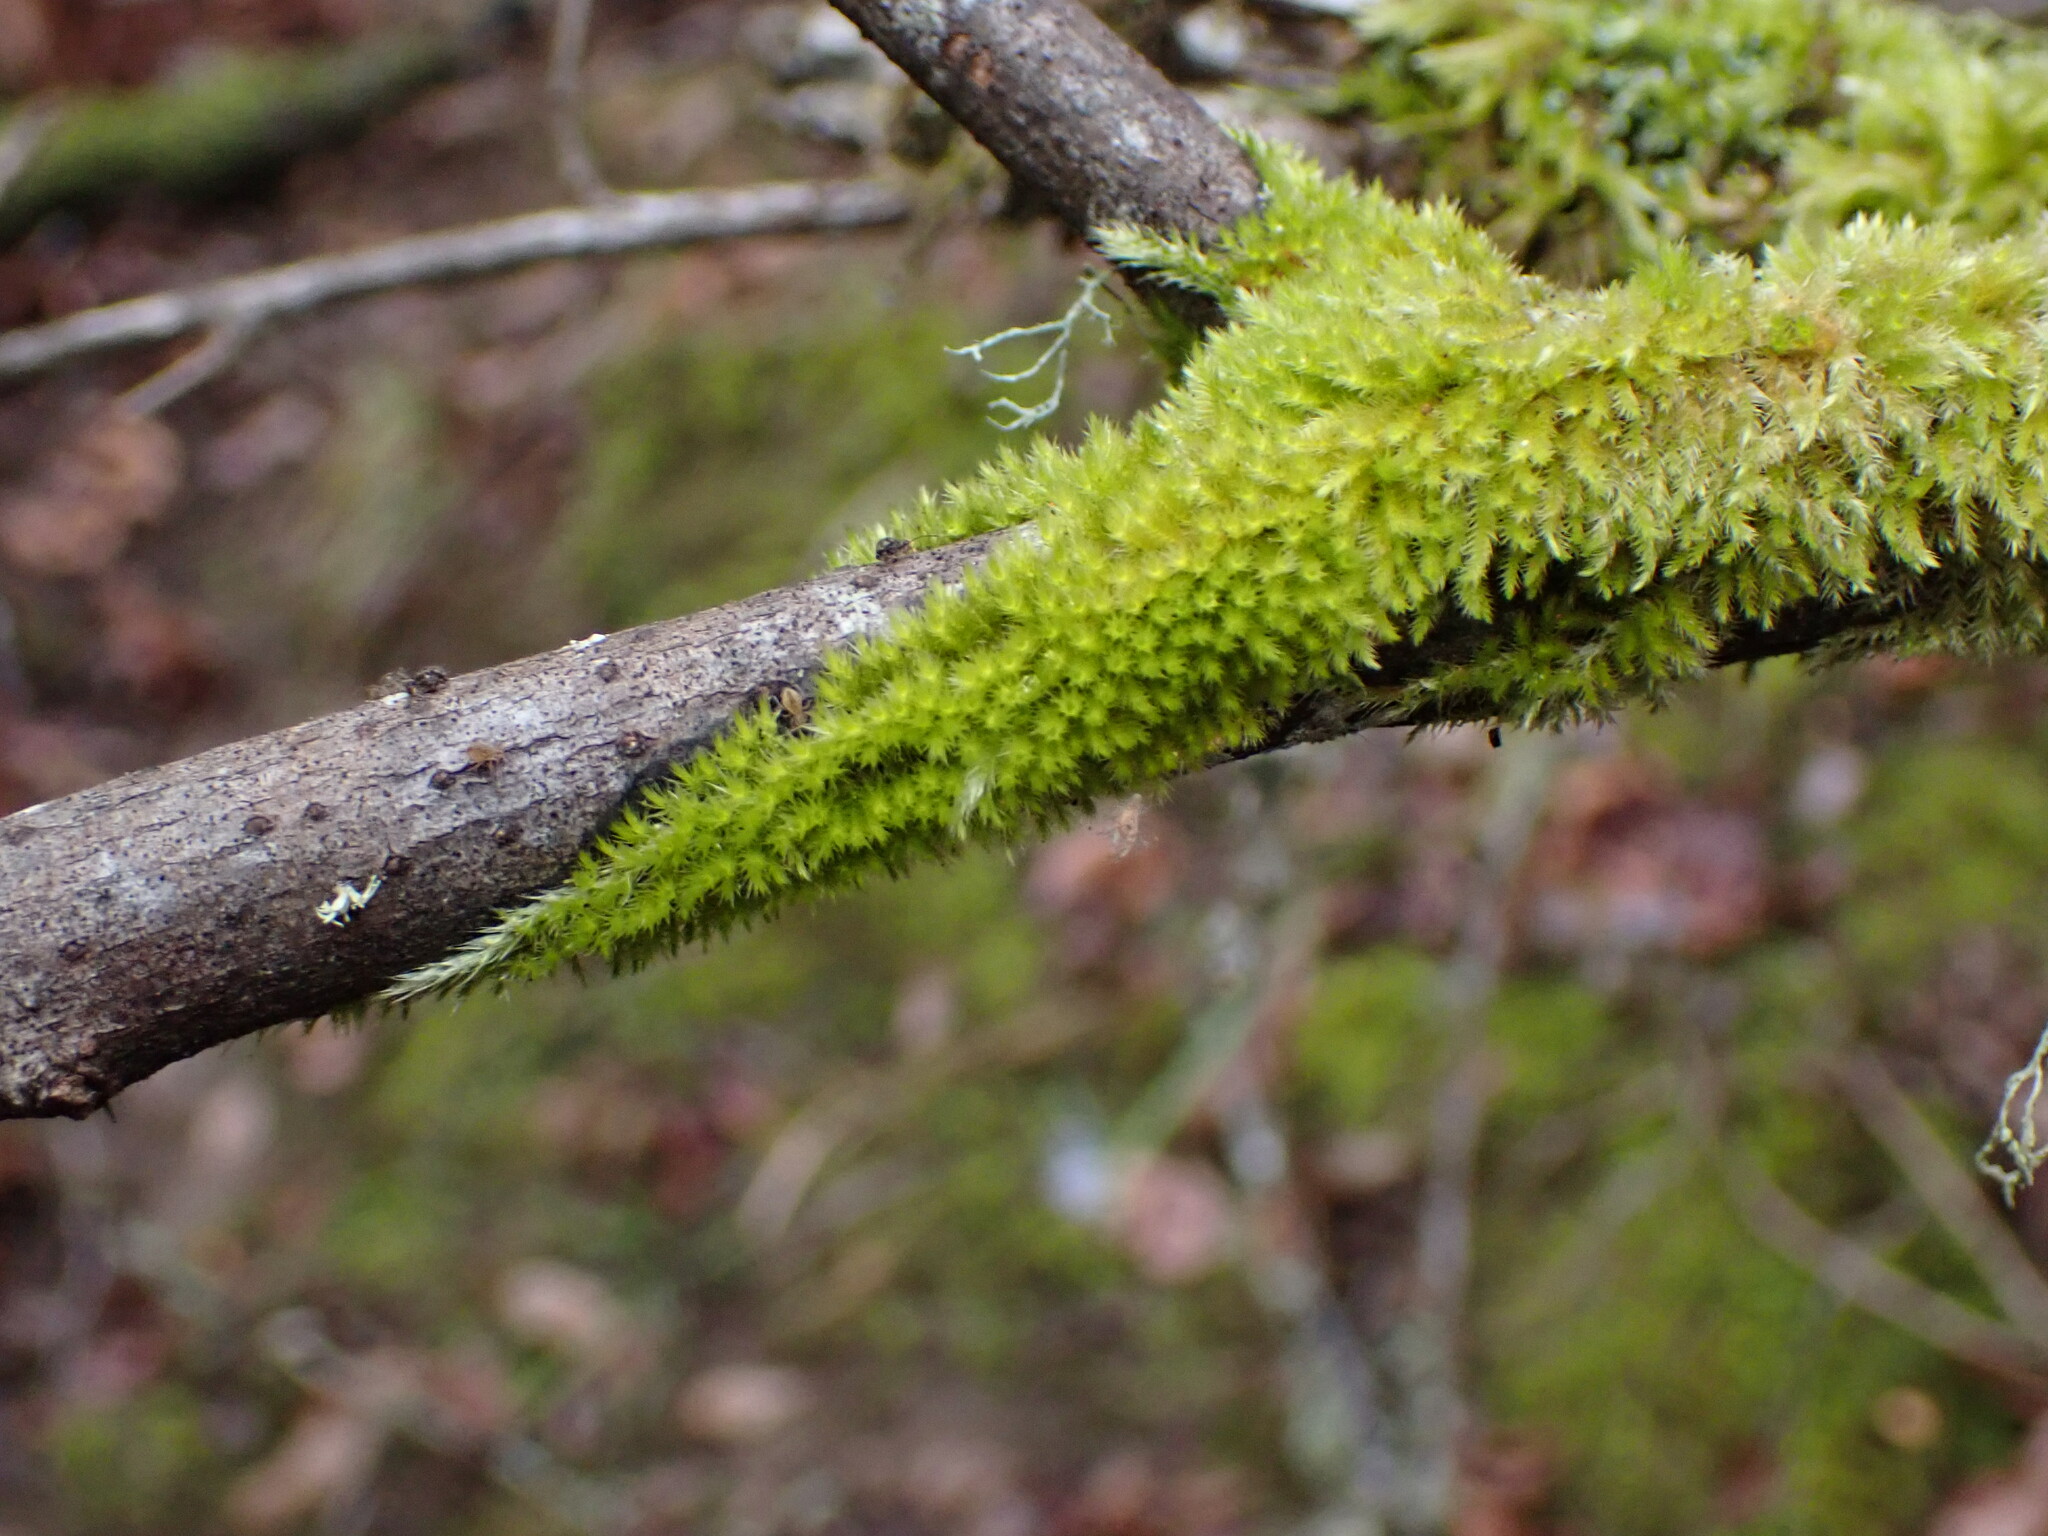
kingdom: Plantae
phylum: Bryophyta
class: Bryopsida
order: Hypnales
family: Brachytheciaceae
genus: Homalothecium
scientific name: Homalothecium nuttallii
